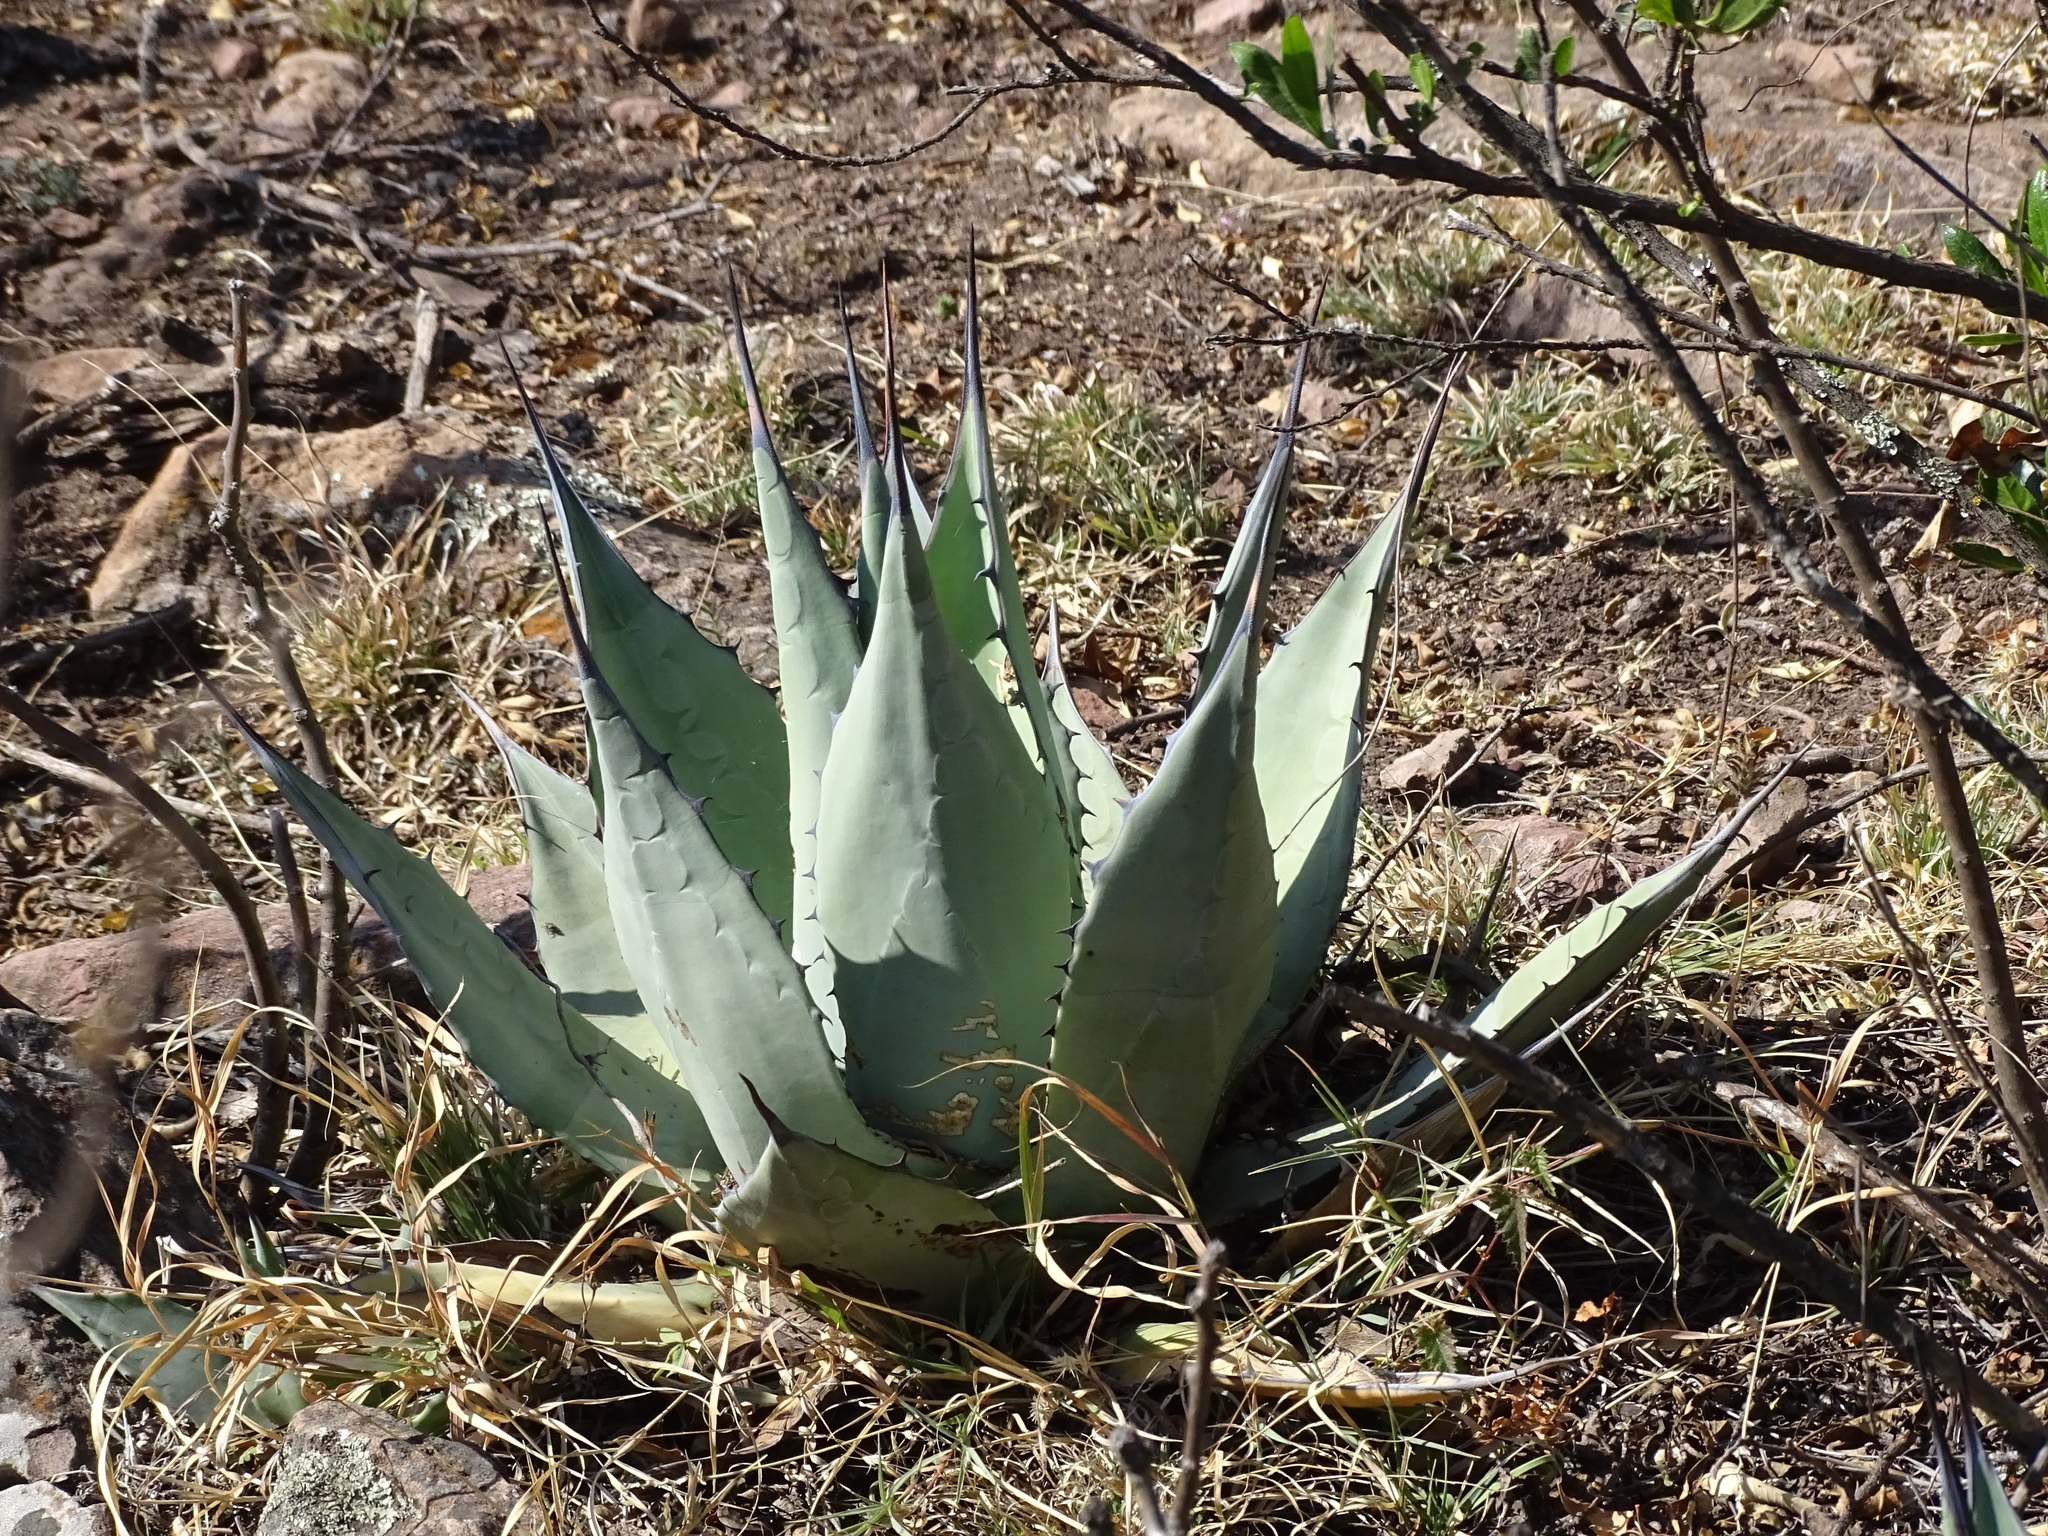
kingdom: Plantae
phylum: Tracheophyta
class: Liliopsida
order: Asparagales
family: Asparagaceae
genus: Agave
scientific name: Agave applanata
